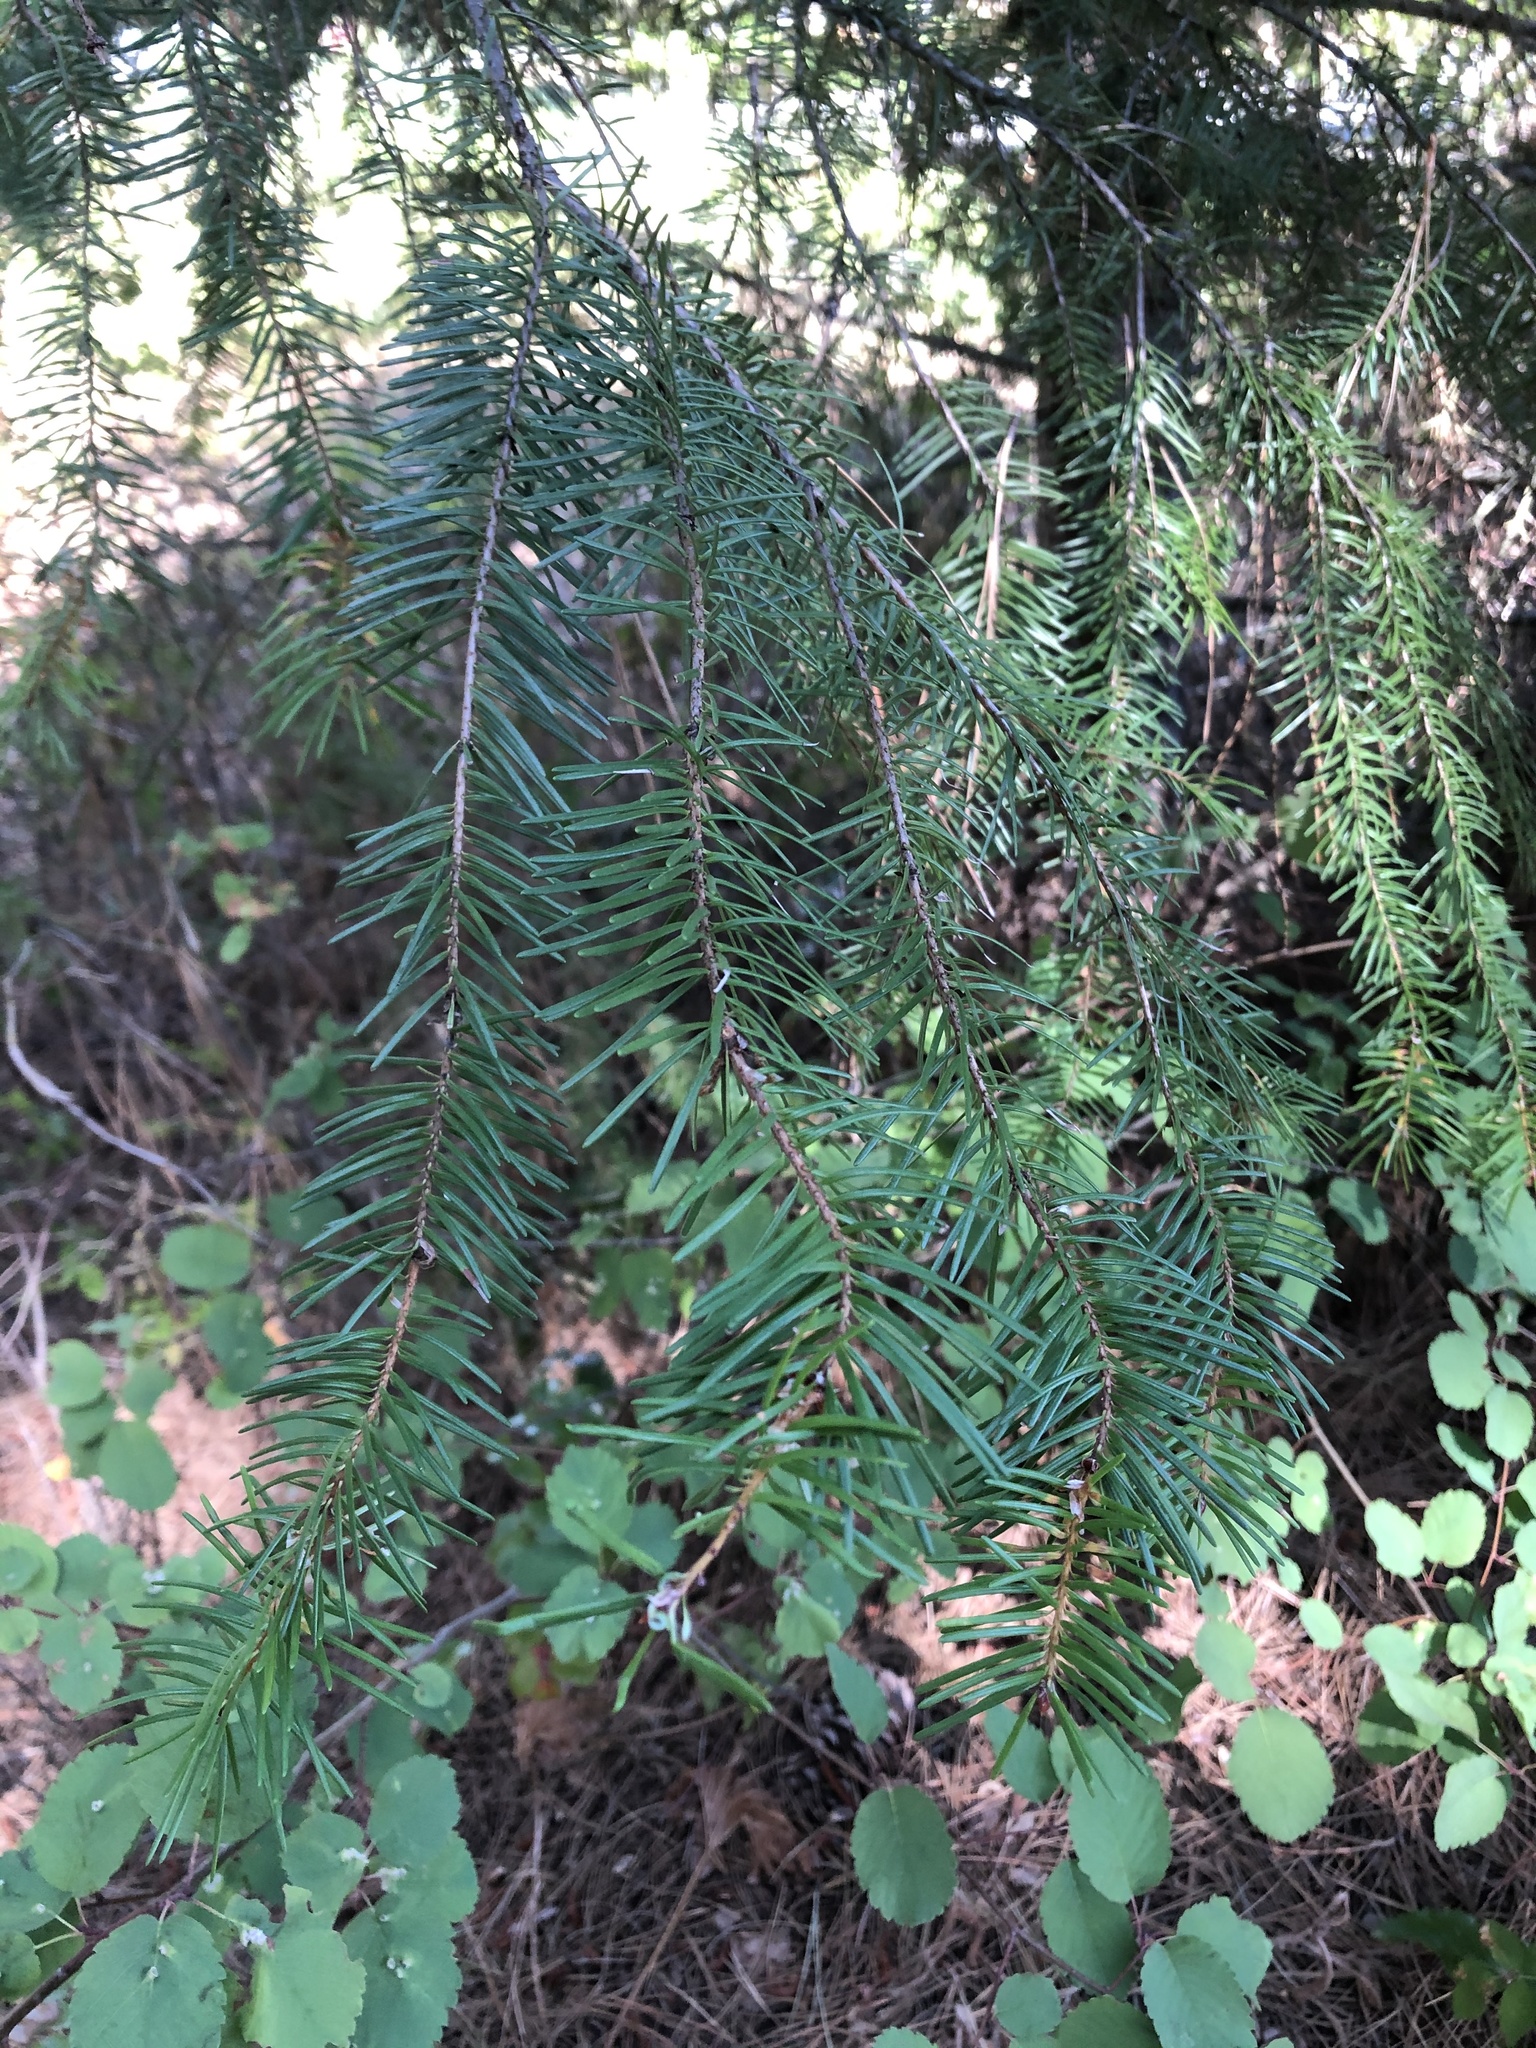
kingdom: Plantae
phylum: Tracheophyta
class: Pinopsida
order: Pinales
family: Pinaceae
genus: Pseudotsuga
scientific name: Pseudotsuga menziesii
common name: Douglas fir
